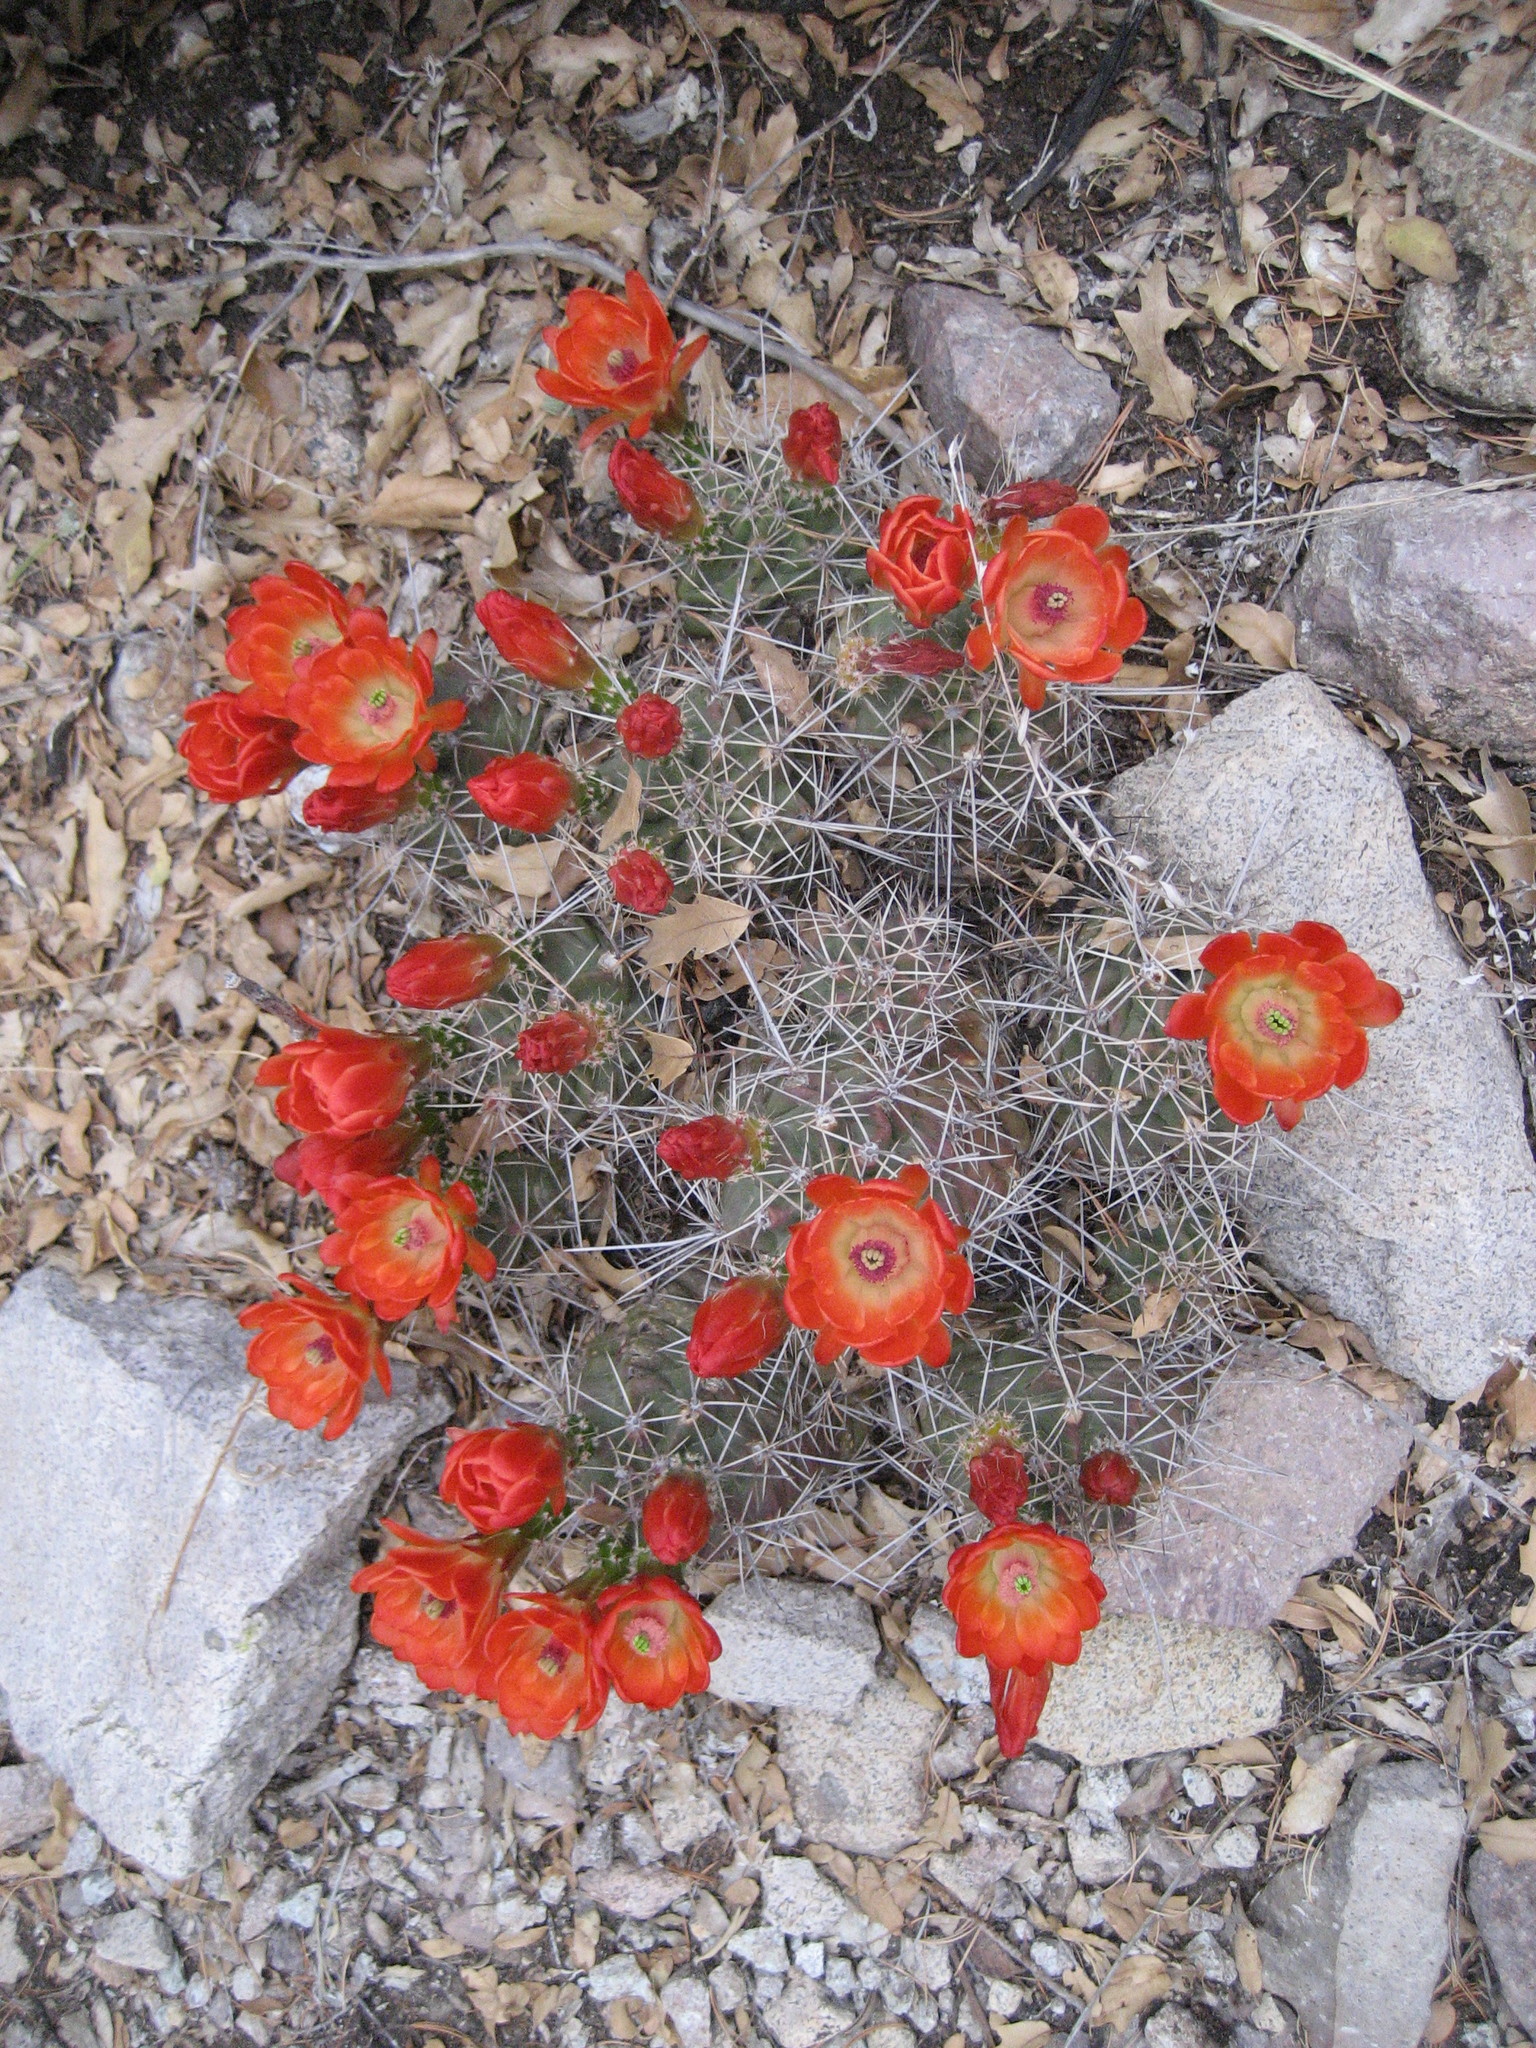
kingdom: Plantae
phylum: Tracheophyta
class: Magnoliopsida
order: Caryophyllales
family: Cactaceae
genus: Echinocereus
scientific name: Echinocereus coccineus
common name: Scarlet hedgehog cactus
